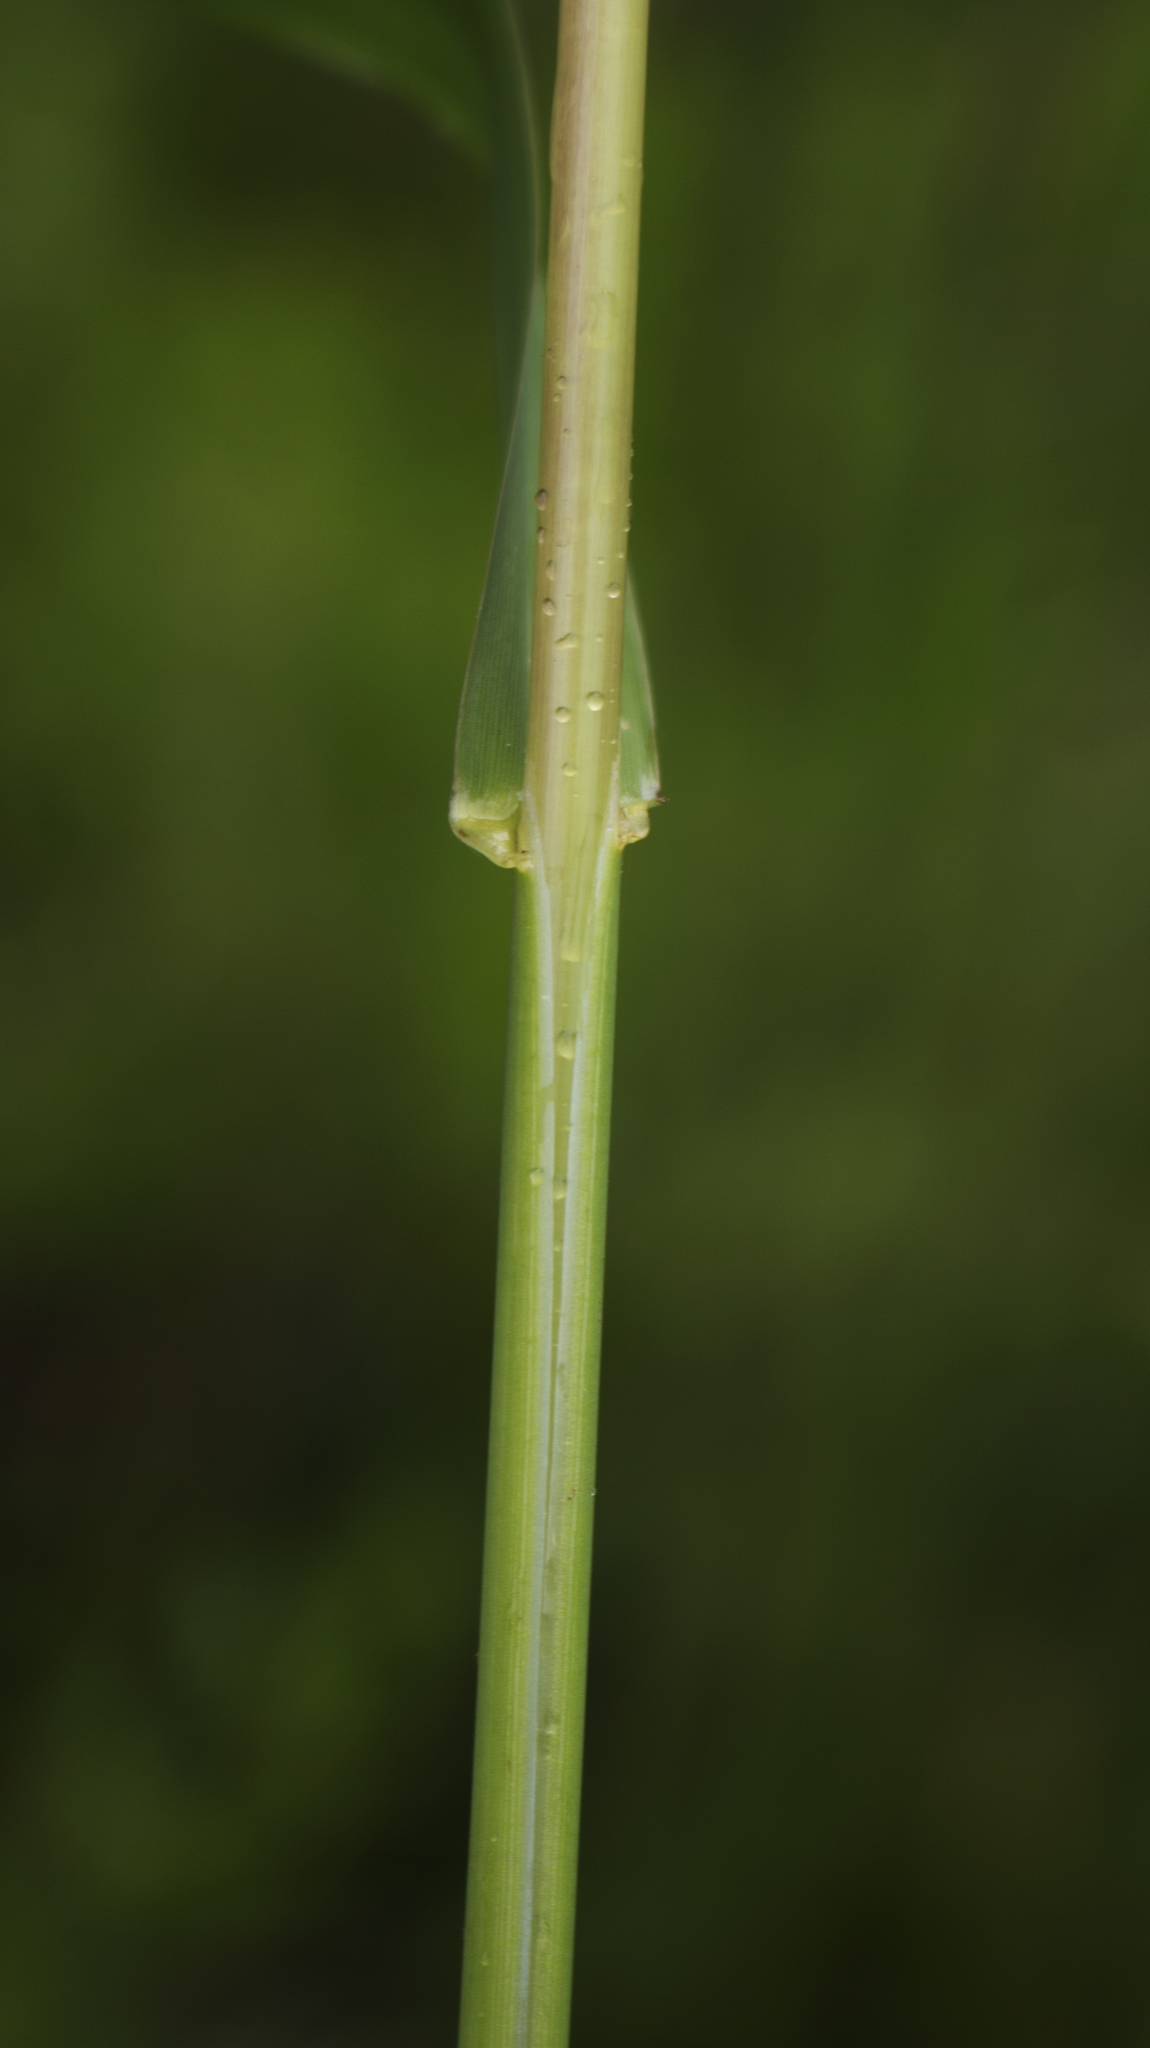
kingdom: Plantae
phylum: Tracheophyta
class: Liliopsida
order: Poales
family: Poaceae
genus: Phalaris
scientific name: Phalaris arundinacea
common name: Reed canary-grass
